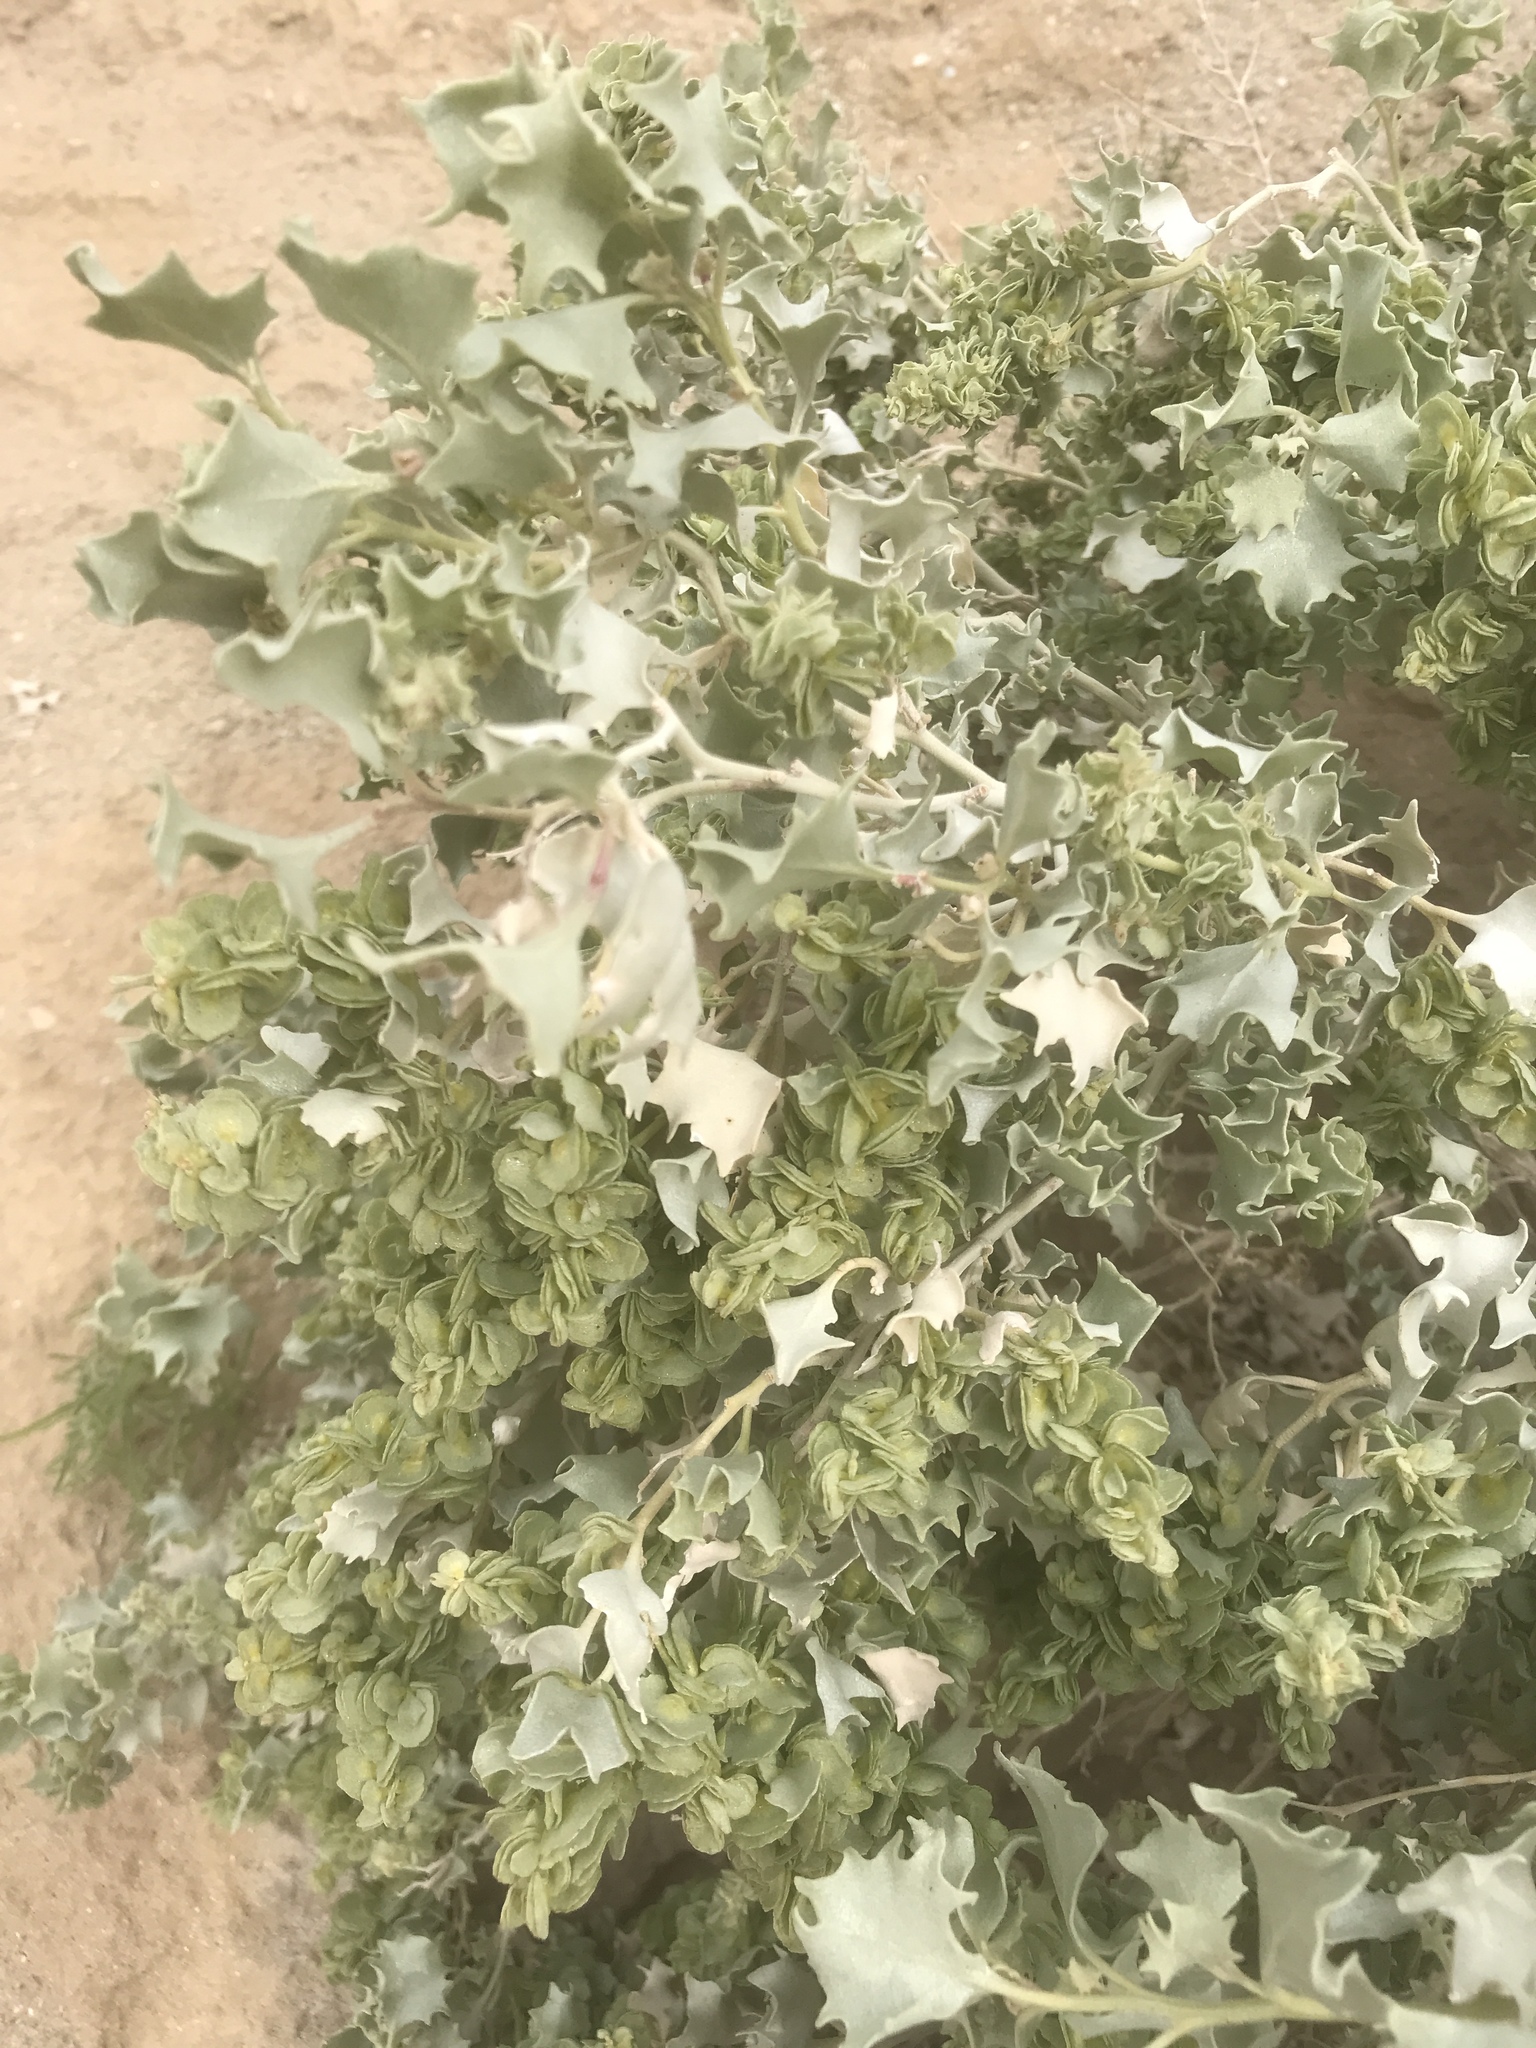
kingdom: Plantae
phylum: Tracheophyta
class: Magnoliopsida
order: Caryophyllales
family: Amaranthaceae
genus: Atriplex
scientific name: Atriplex hymenelytra
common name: Desert-holly
